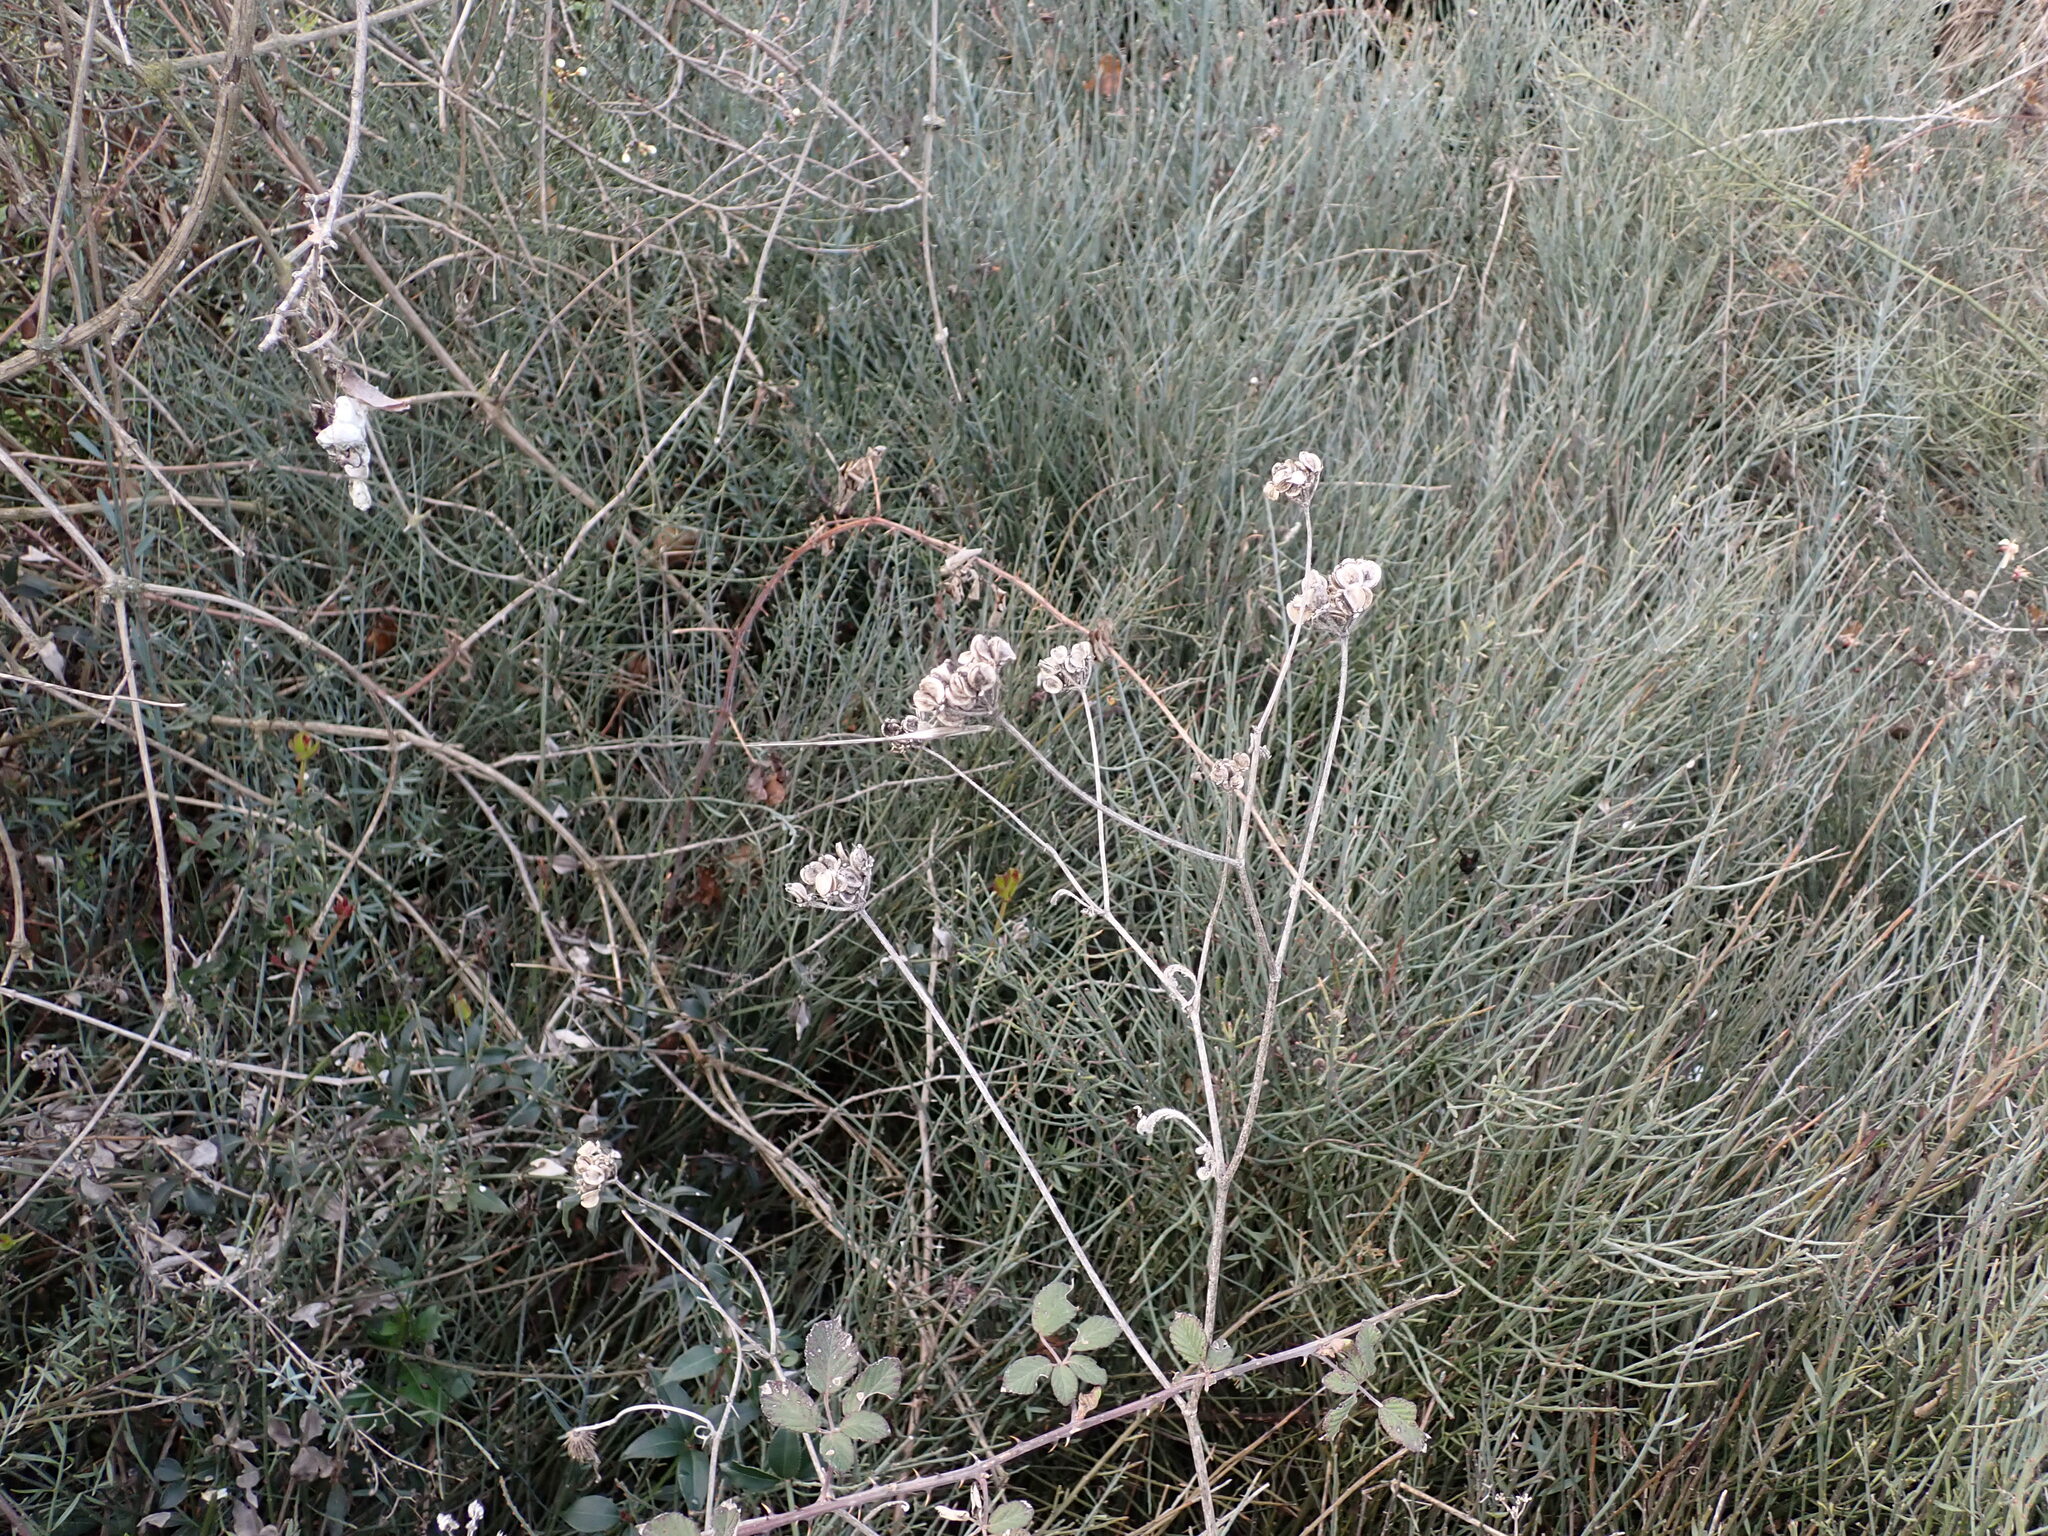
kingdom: Plantae
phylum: Tracheophyta
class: Magnoliopsida
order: Apiales
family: Apiaceae
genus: Tordylium
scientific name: Tordylium maximum
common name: Hartwort
